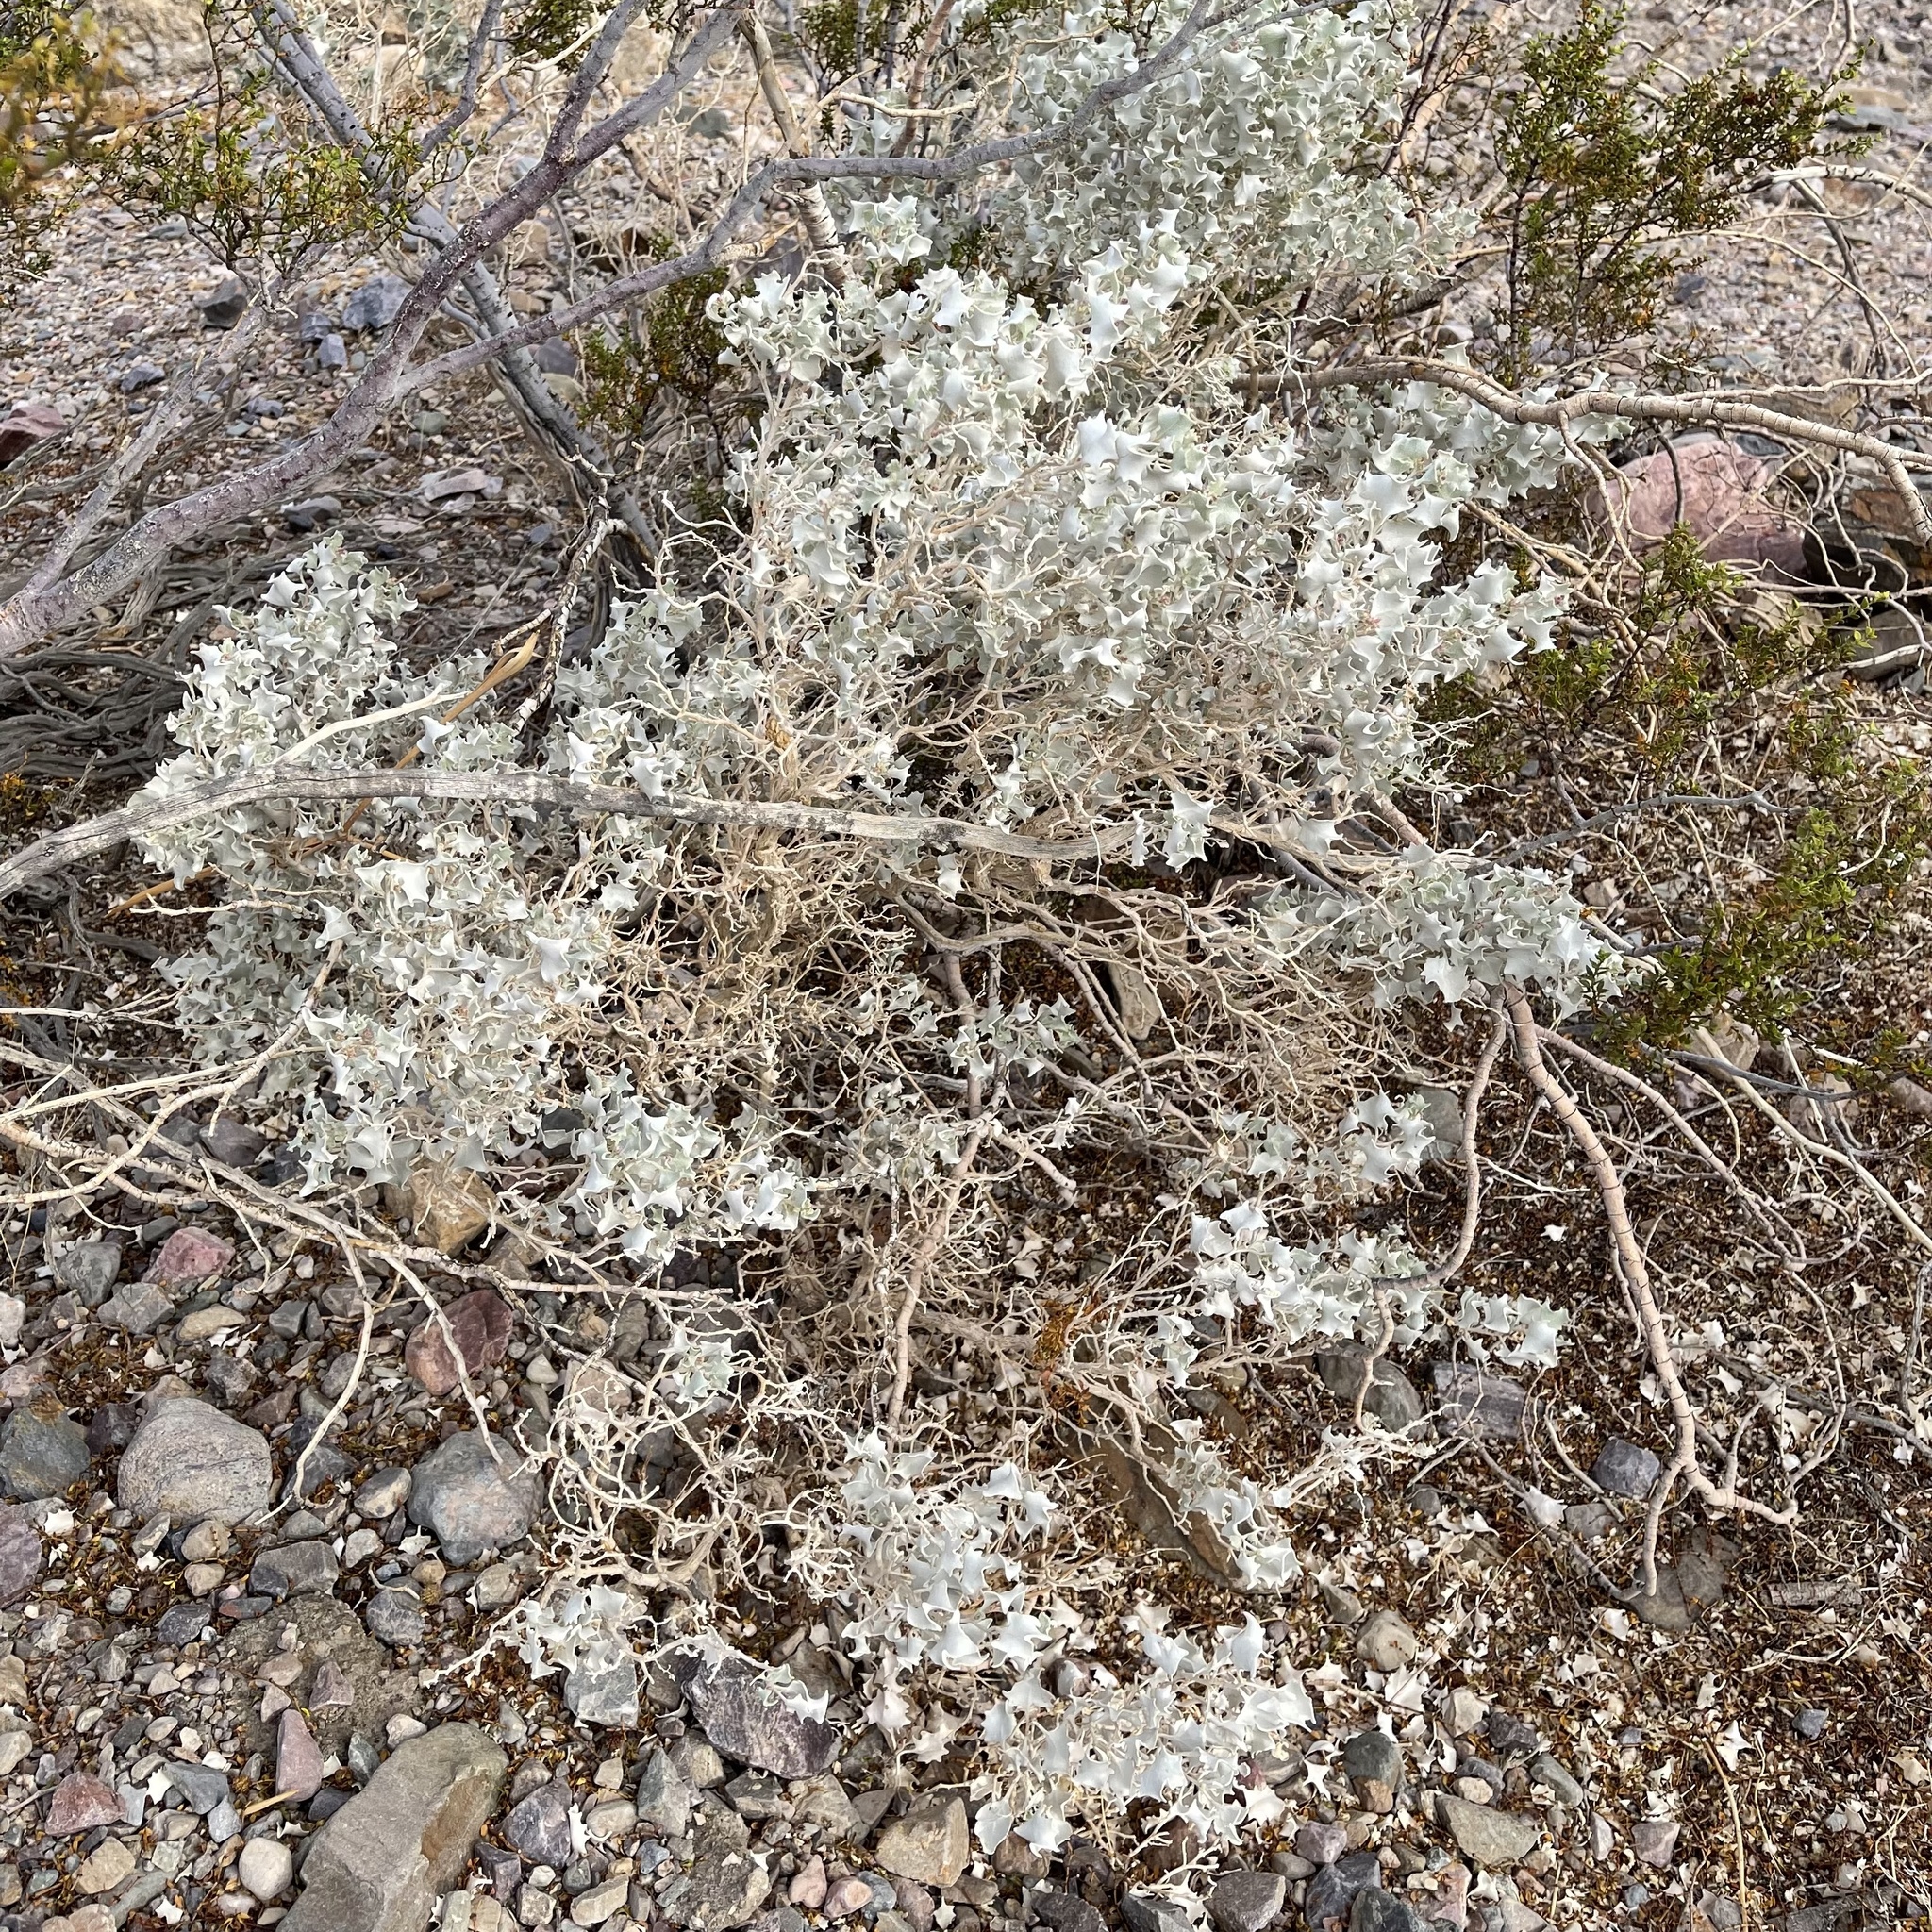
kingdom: Plantae
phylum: Tracheophyta
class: Magnoliopsida
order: Caryophyllales
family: Amaranthaceae
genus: Atriplex
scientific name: Atriplex hymenelytra
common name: Desert-holly
